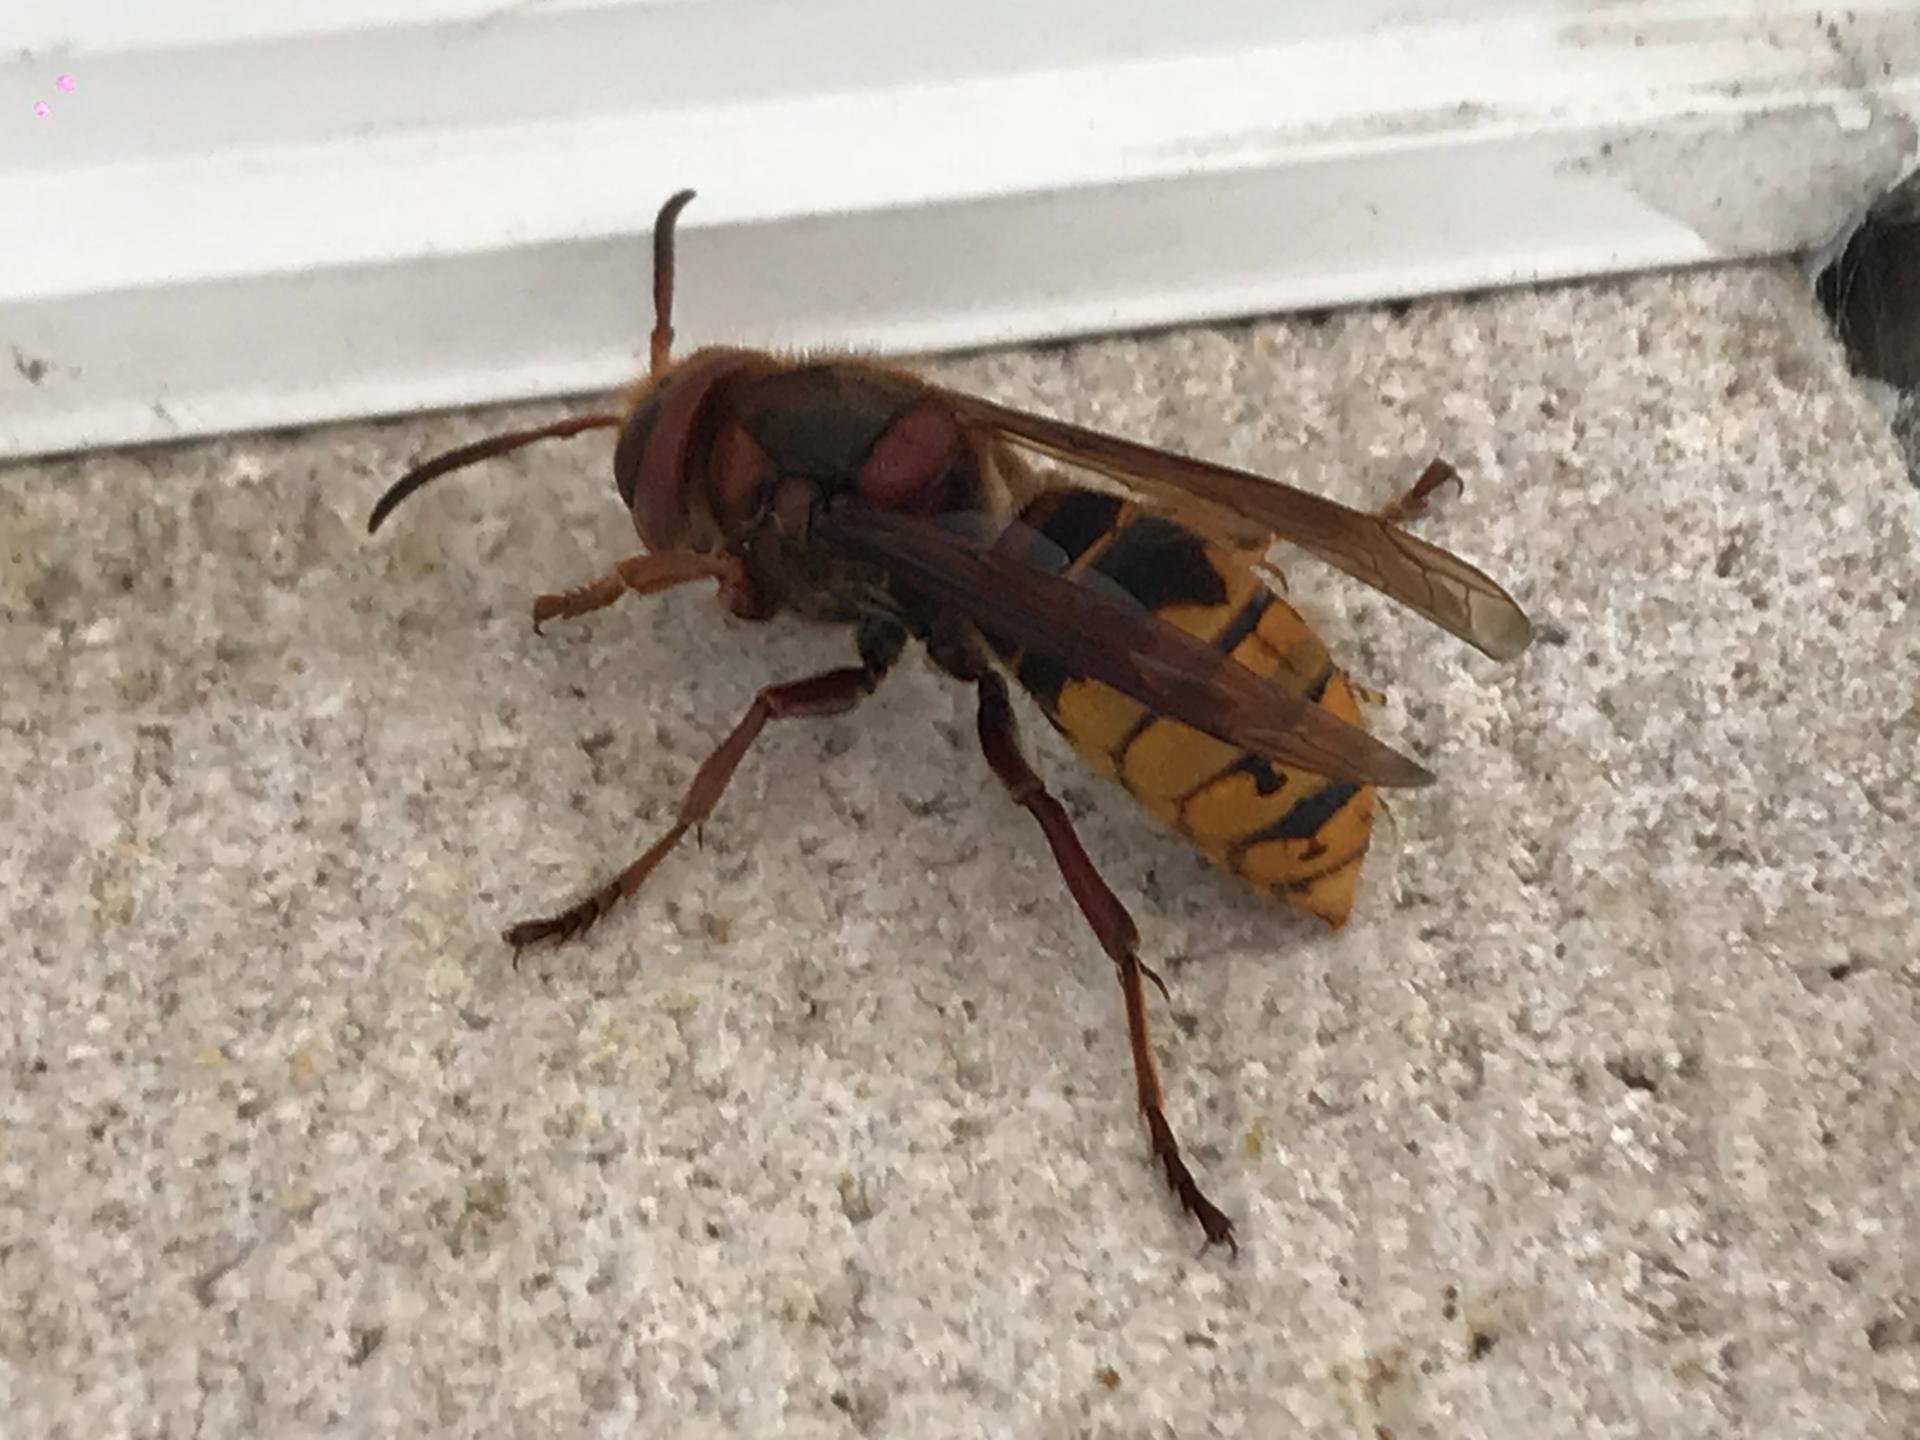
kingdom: Animalia
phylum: Arthropoda
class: Insecta
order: Hymenoptera
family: Vespidae
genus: Vespa
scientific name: Vespa crabro
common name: Hornet
